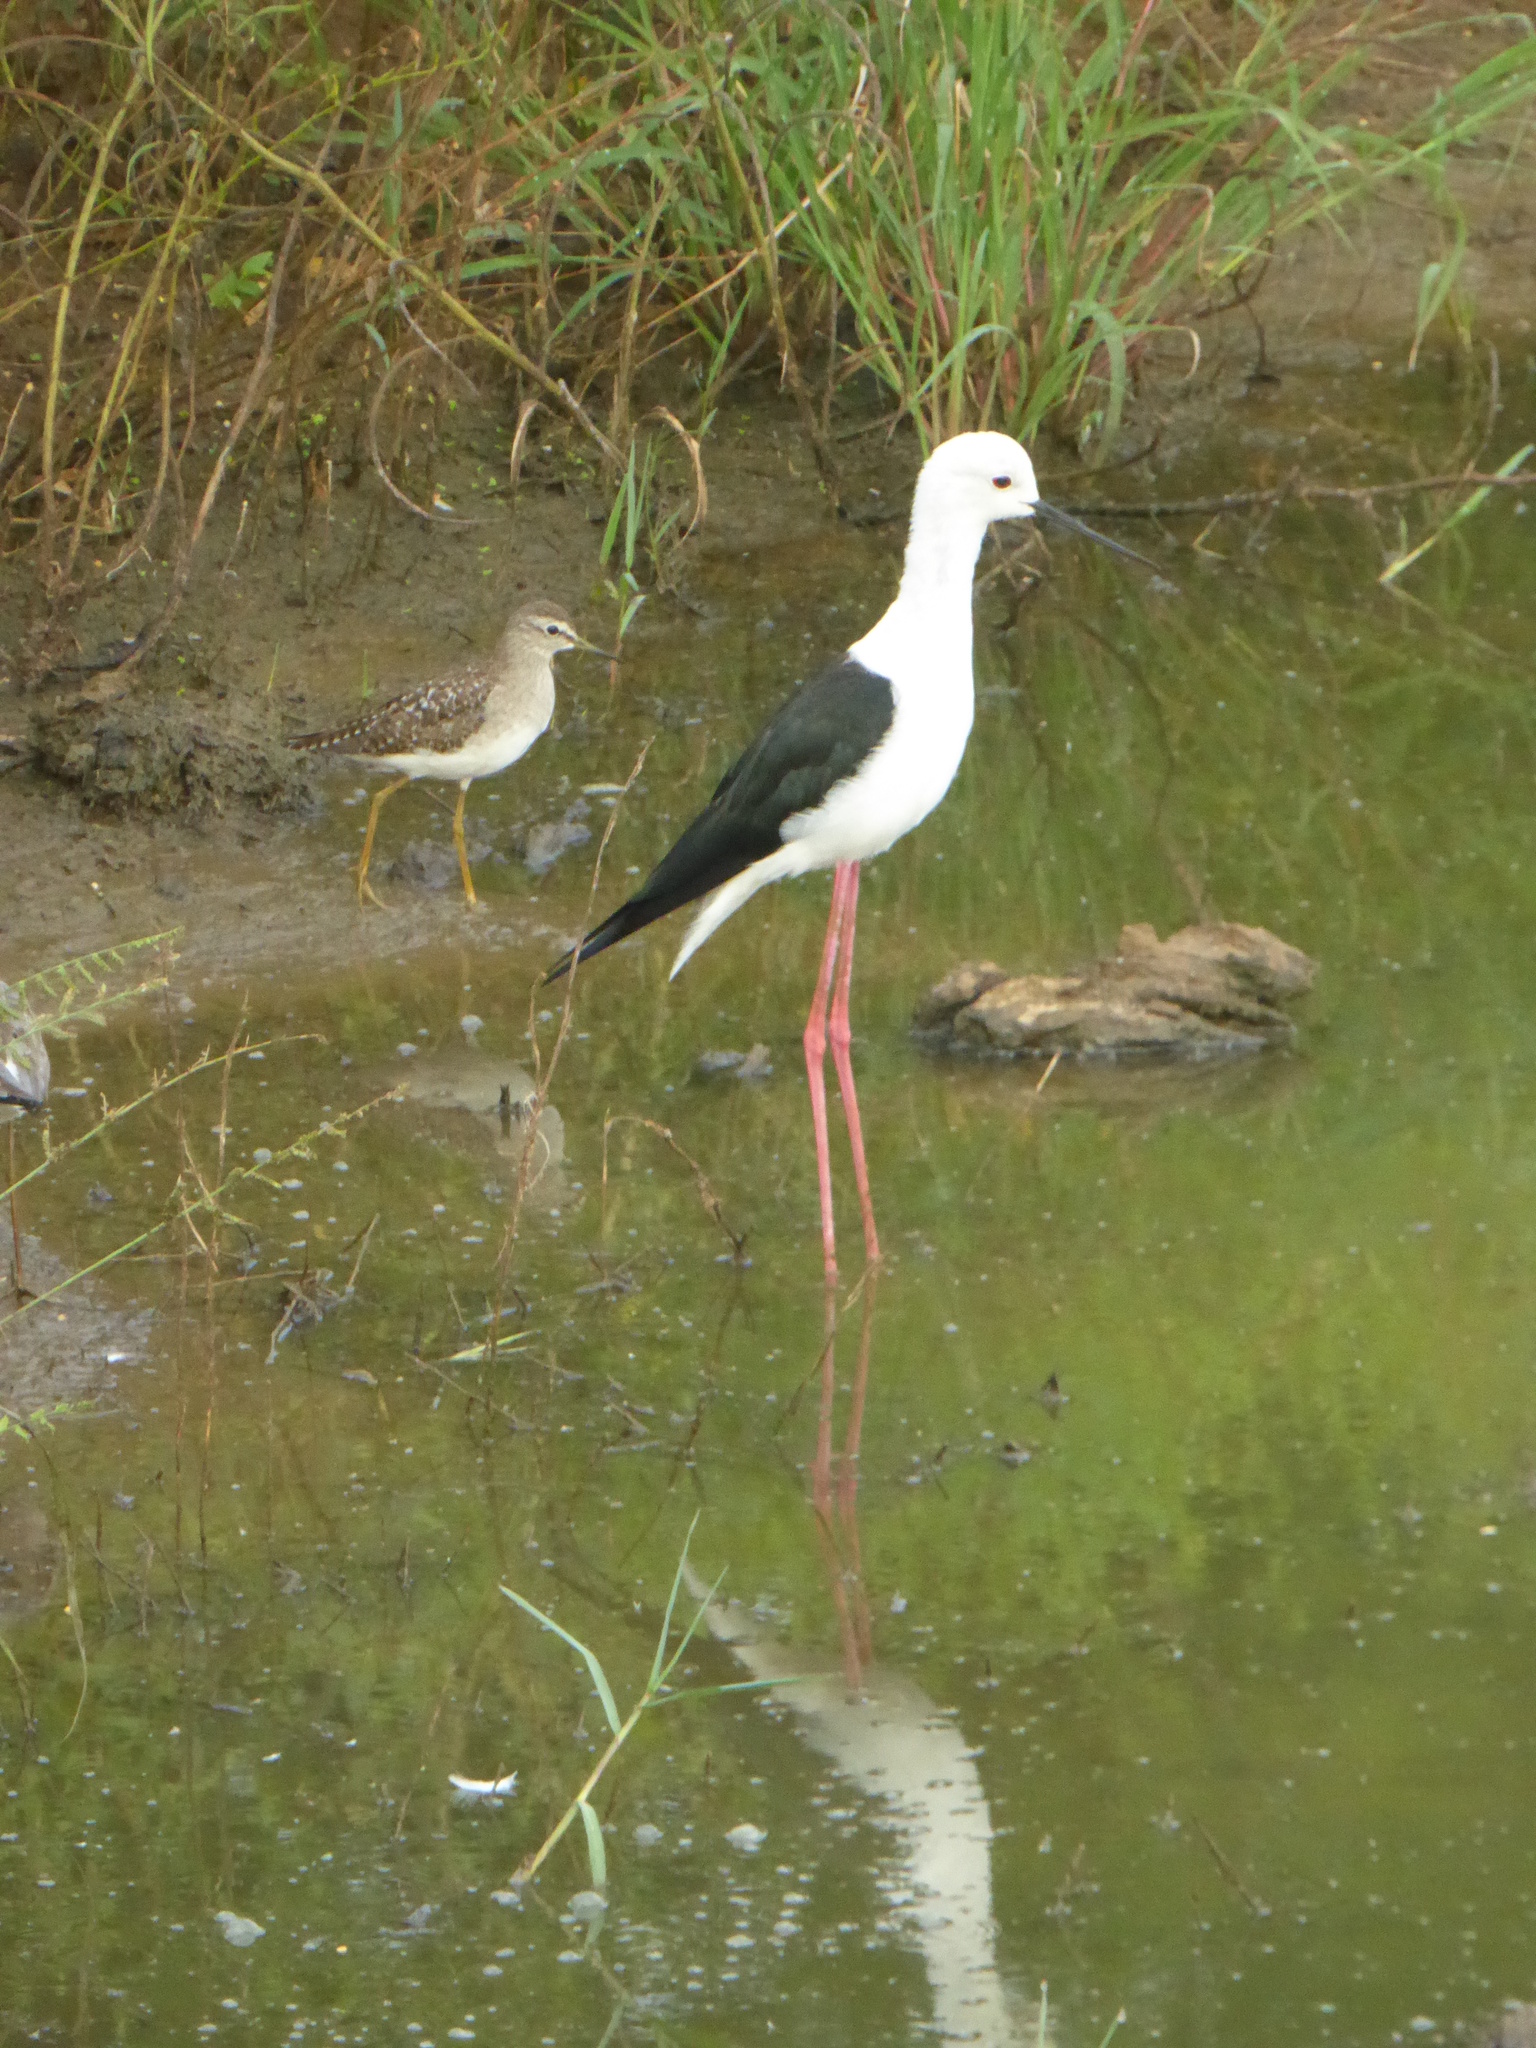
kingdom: Animalia
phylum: Chordata
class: Aves
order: Charadriiformes
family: Recurvirostridae
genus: Himantopus
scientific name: Himantopus himantopus
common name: Black-winged stilt
